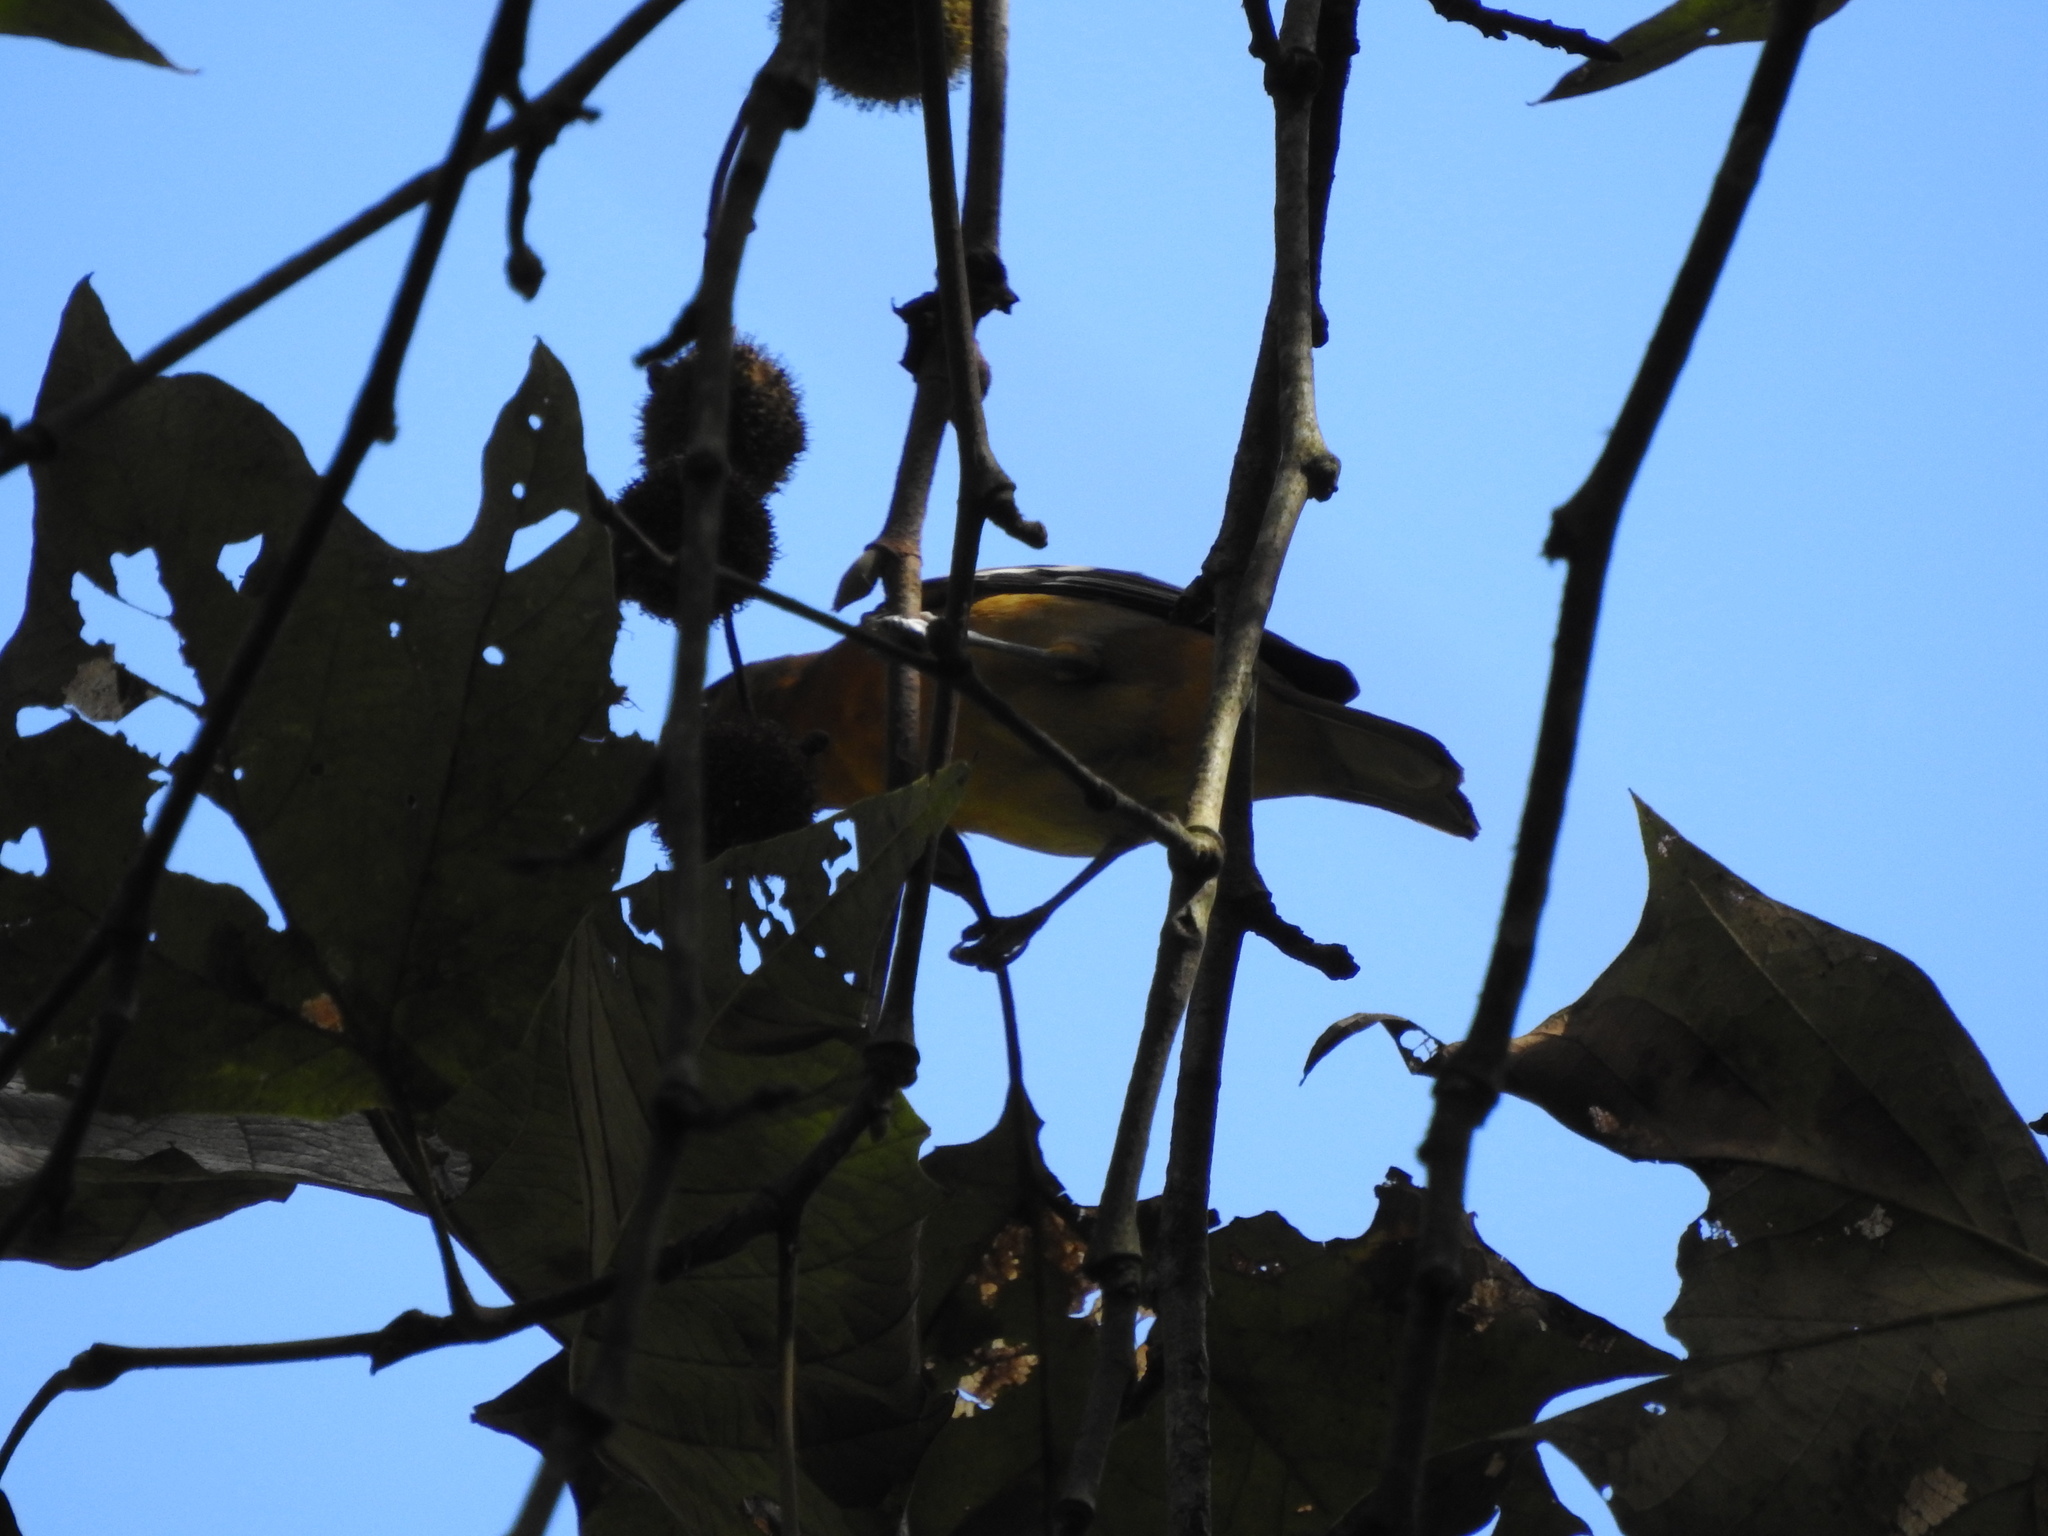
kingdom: Animalia
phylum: Chordata
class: Aves
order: Passeriformes
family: Icteridae
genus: Icterus
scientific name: Icterus galbula
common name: Baltimore oriole
